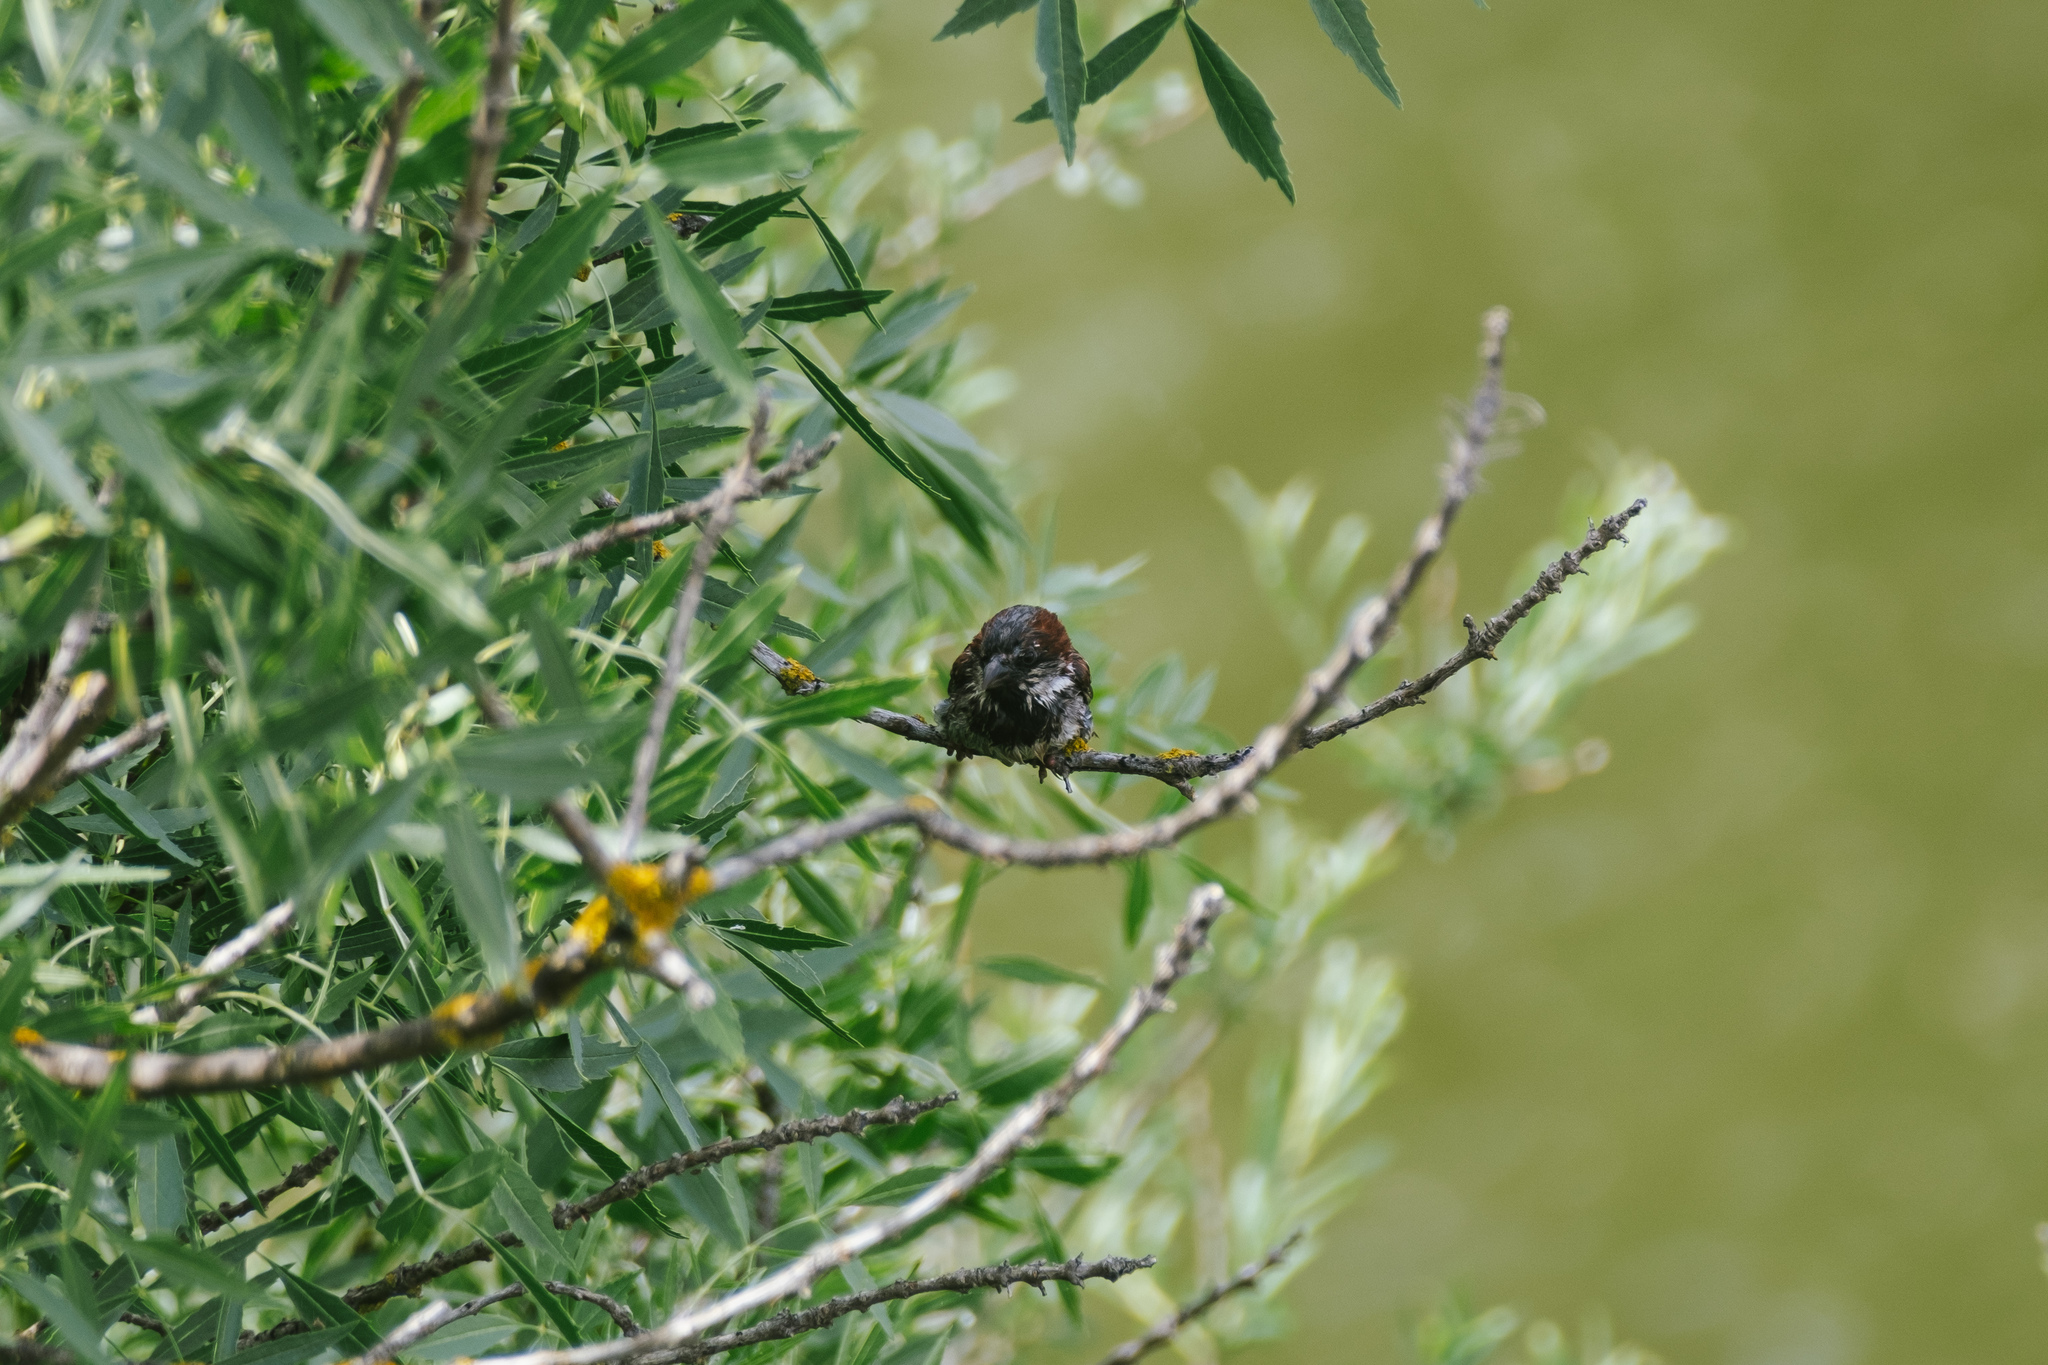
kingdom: Animalia
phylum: Chordata
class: Aves
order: Passeriformes
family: Passeridae
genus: Passer
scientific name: Passer domesticus
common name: House sparrow
